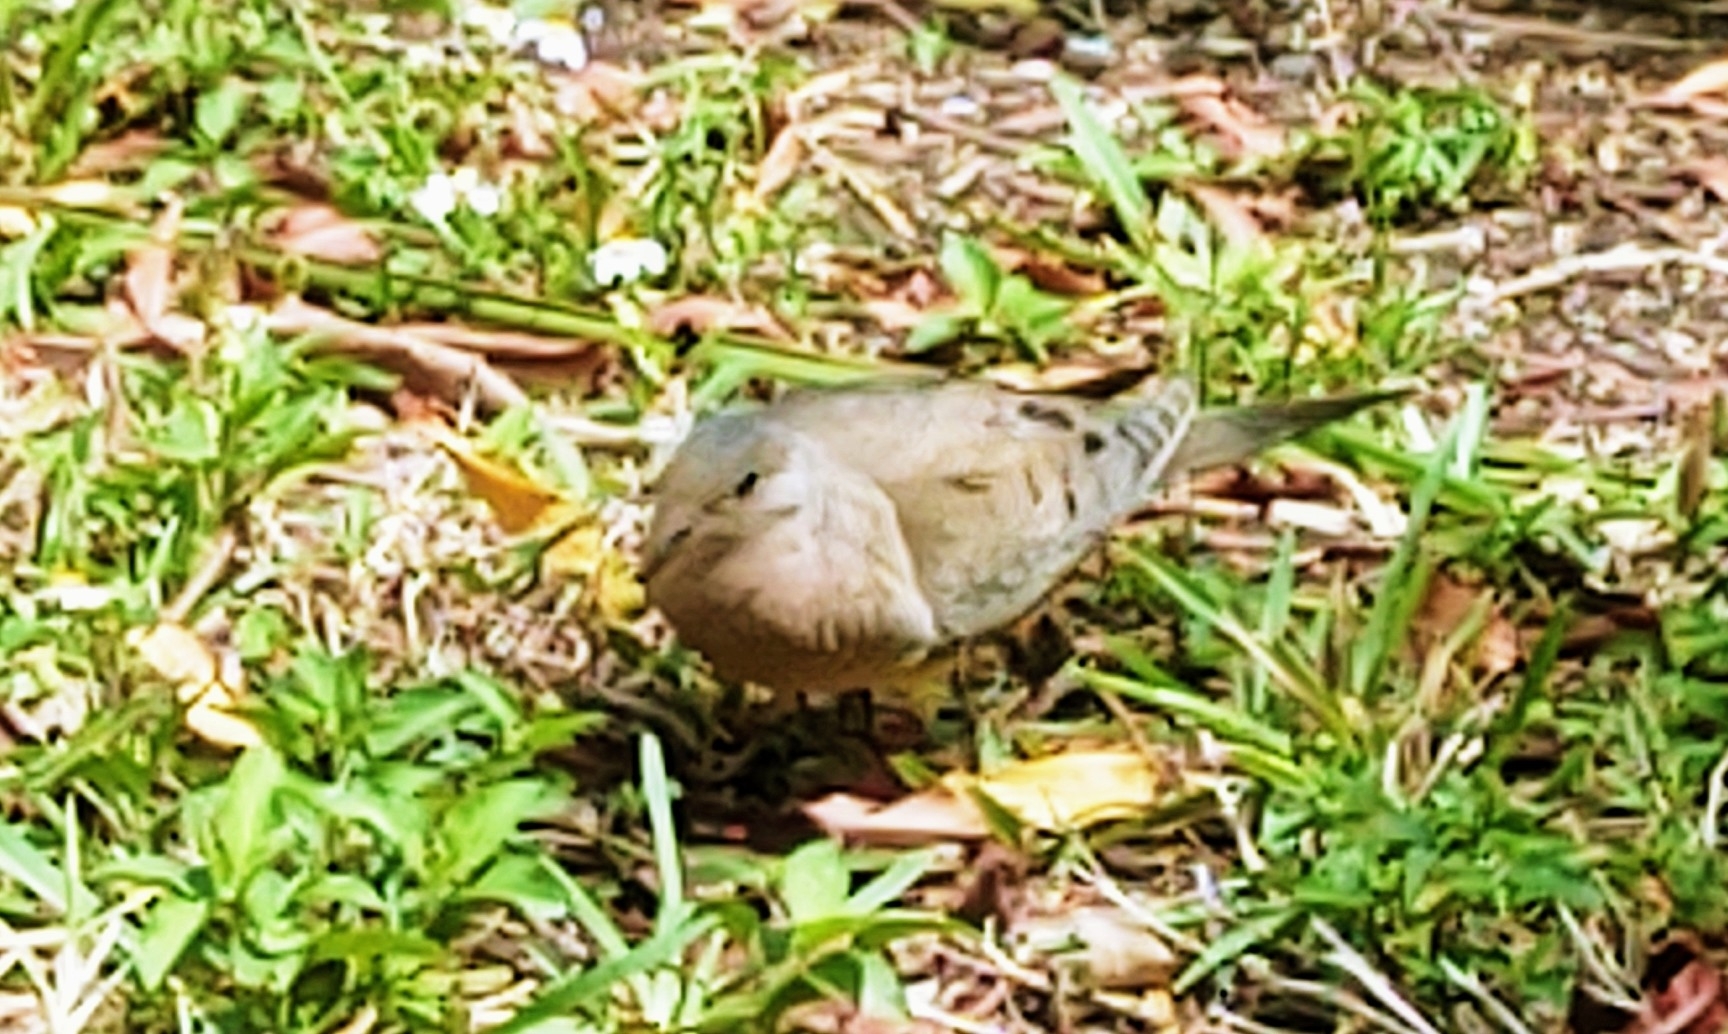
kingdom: Animalia
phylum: Chordata
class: Aves
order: Columbiformes
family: Columbidae
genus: Zenaida
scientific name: Zenaida macroura
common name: Mourning dove
